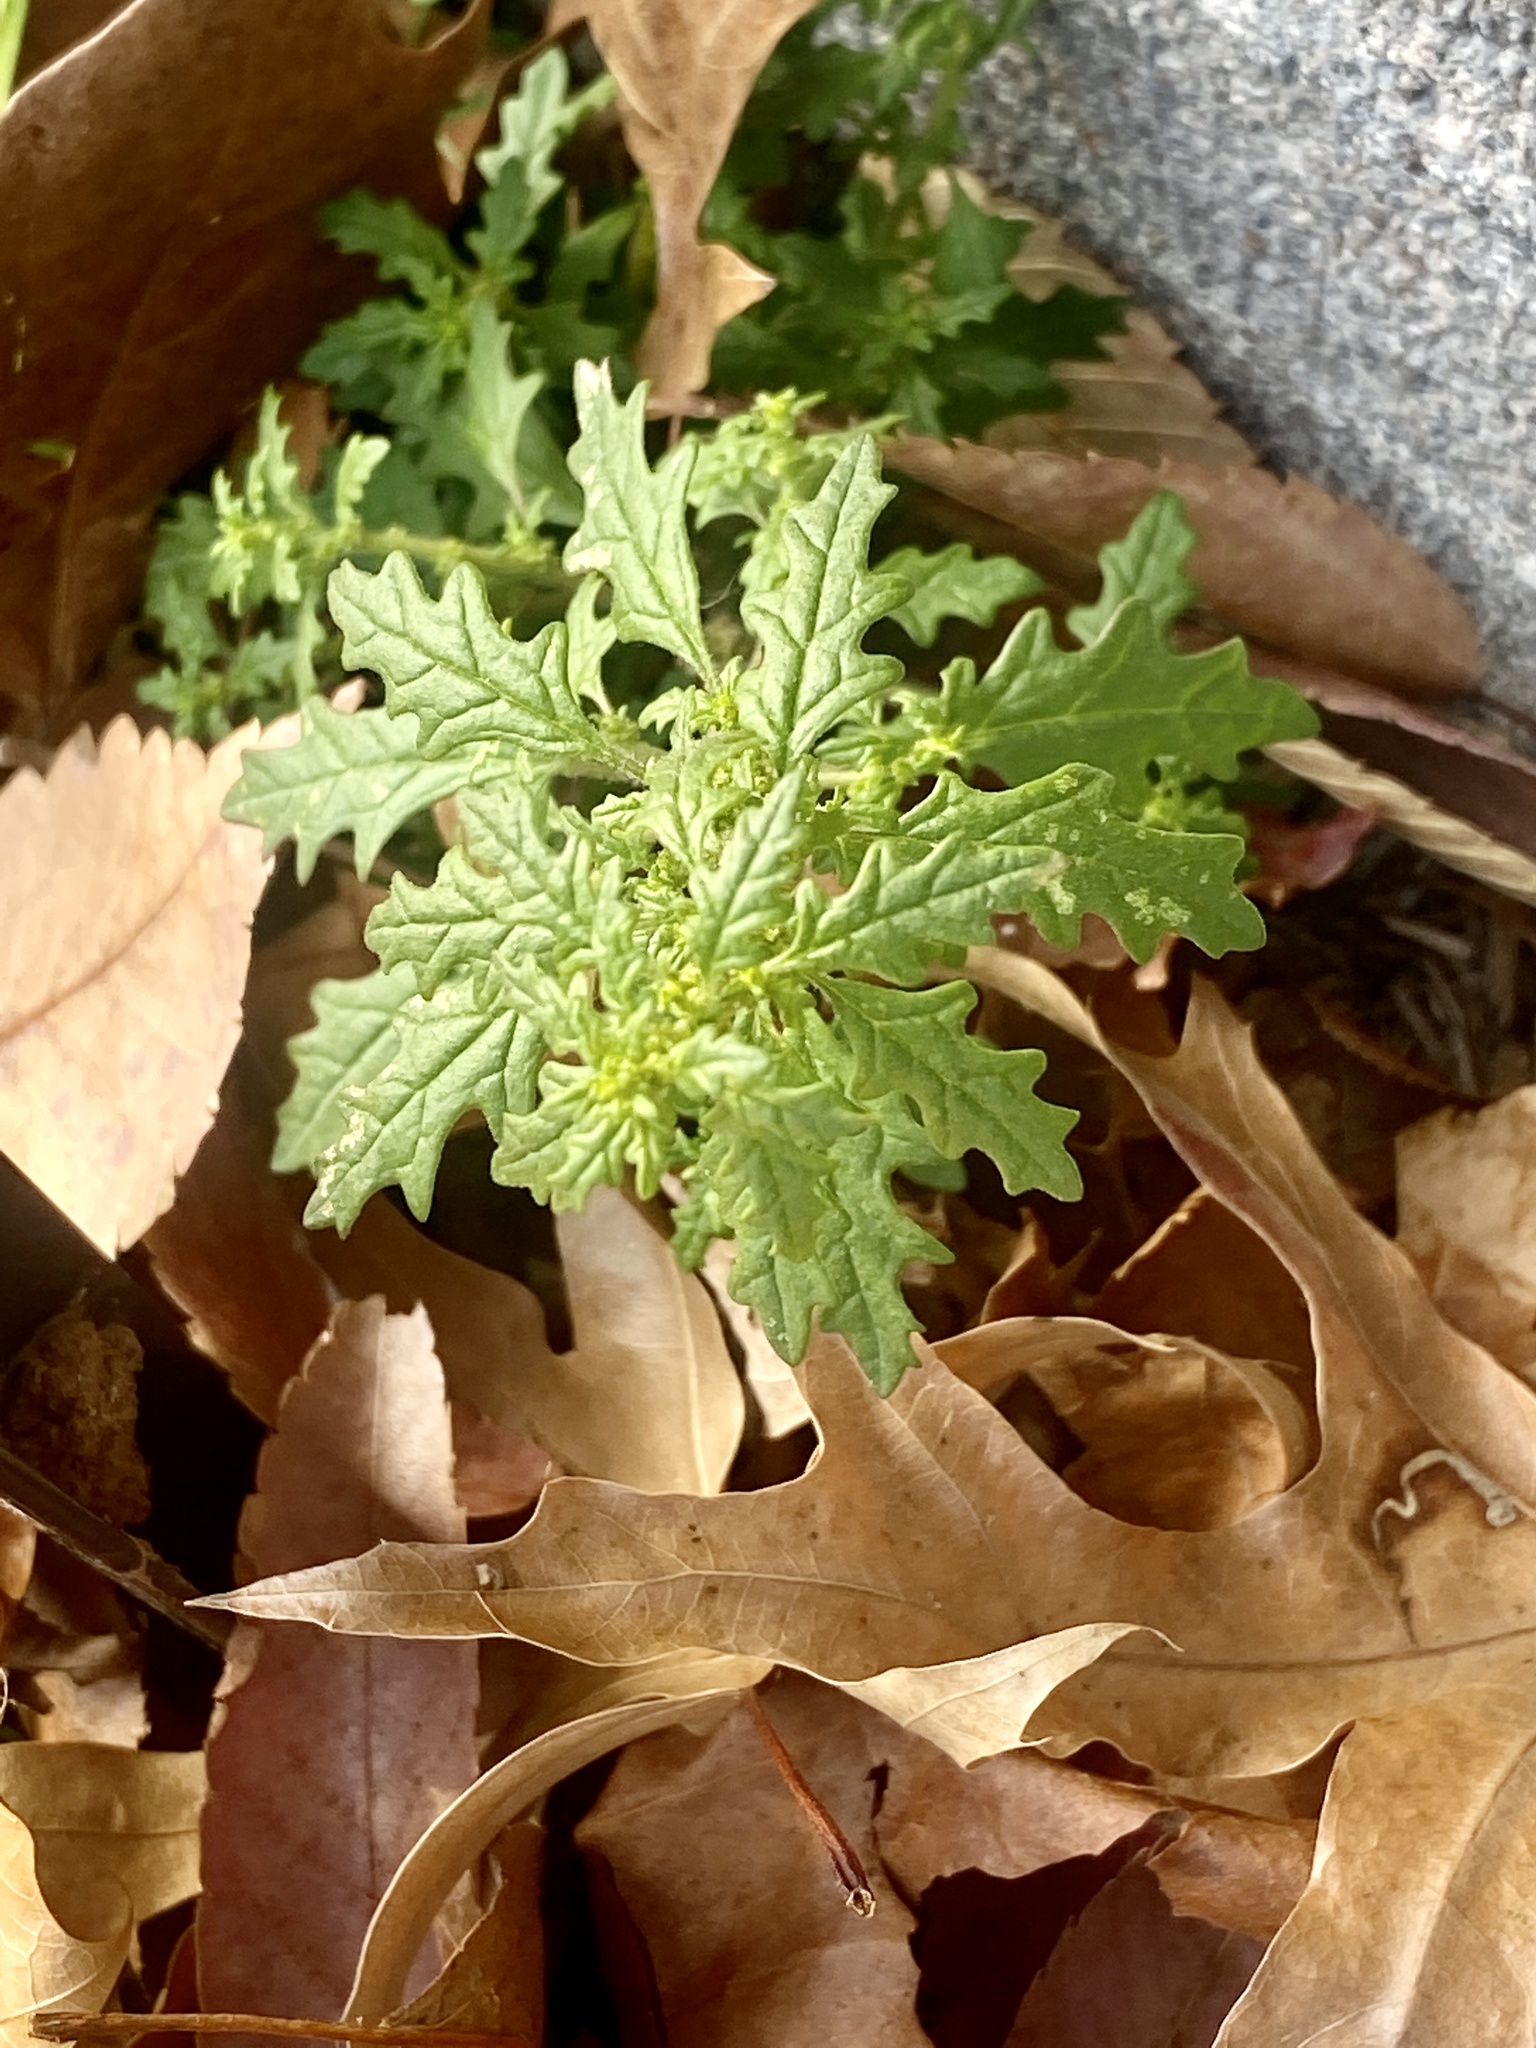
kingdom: Plantae
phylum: Tracheophyta
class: Magnoliopsida
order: Caryophyllales
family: Amaranthaceae
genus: Dysphania
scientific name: Dysphania pumilio
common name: Clammy goosefoot
